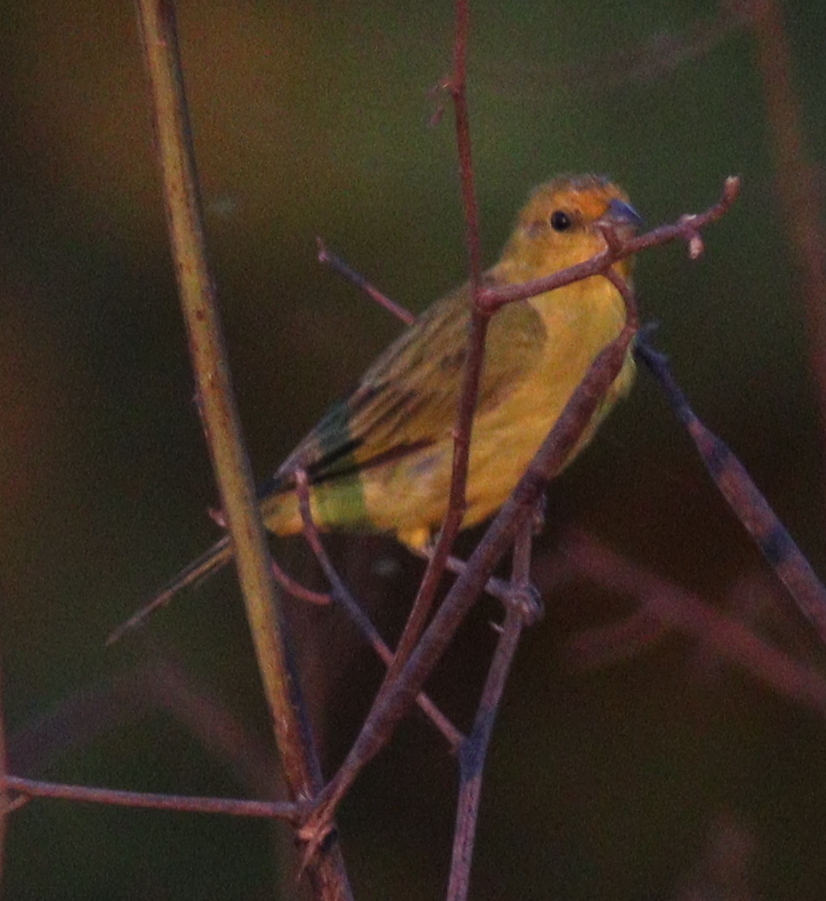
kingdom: Animalia
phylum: Chordata
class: Aves
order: Passeriformes
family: Thraupidae
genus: Sicalis
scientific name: Sicalis flaveola
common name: Saffron finch
